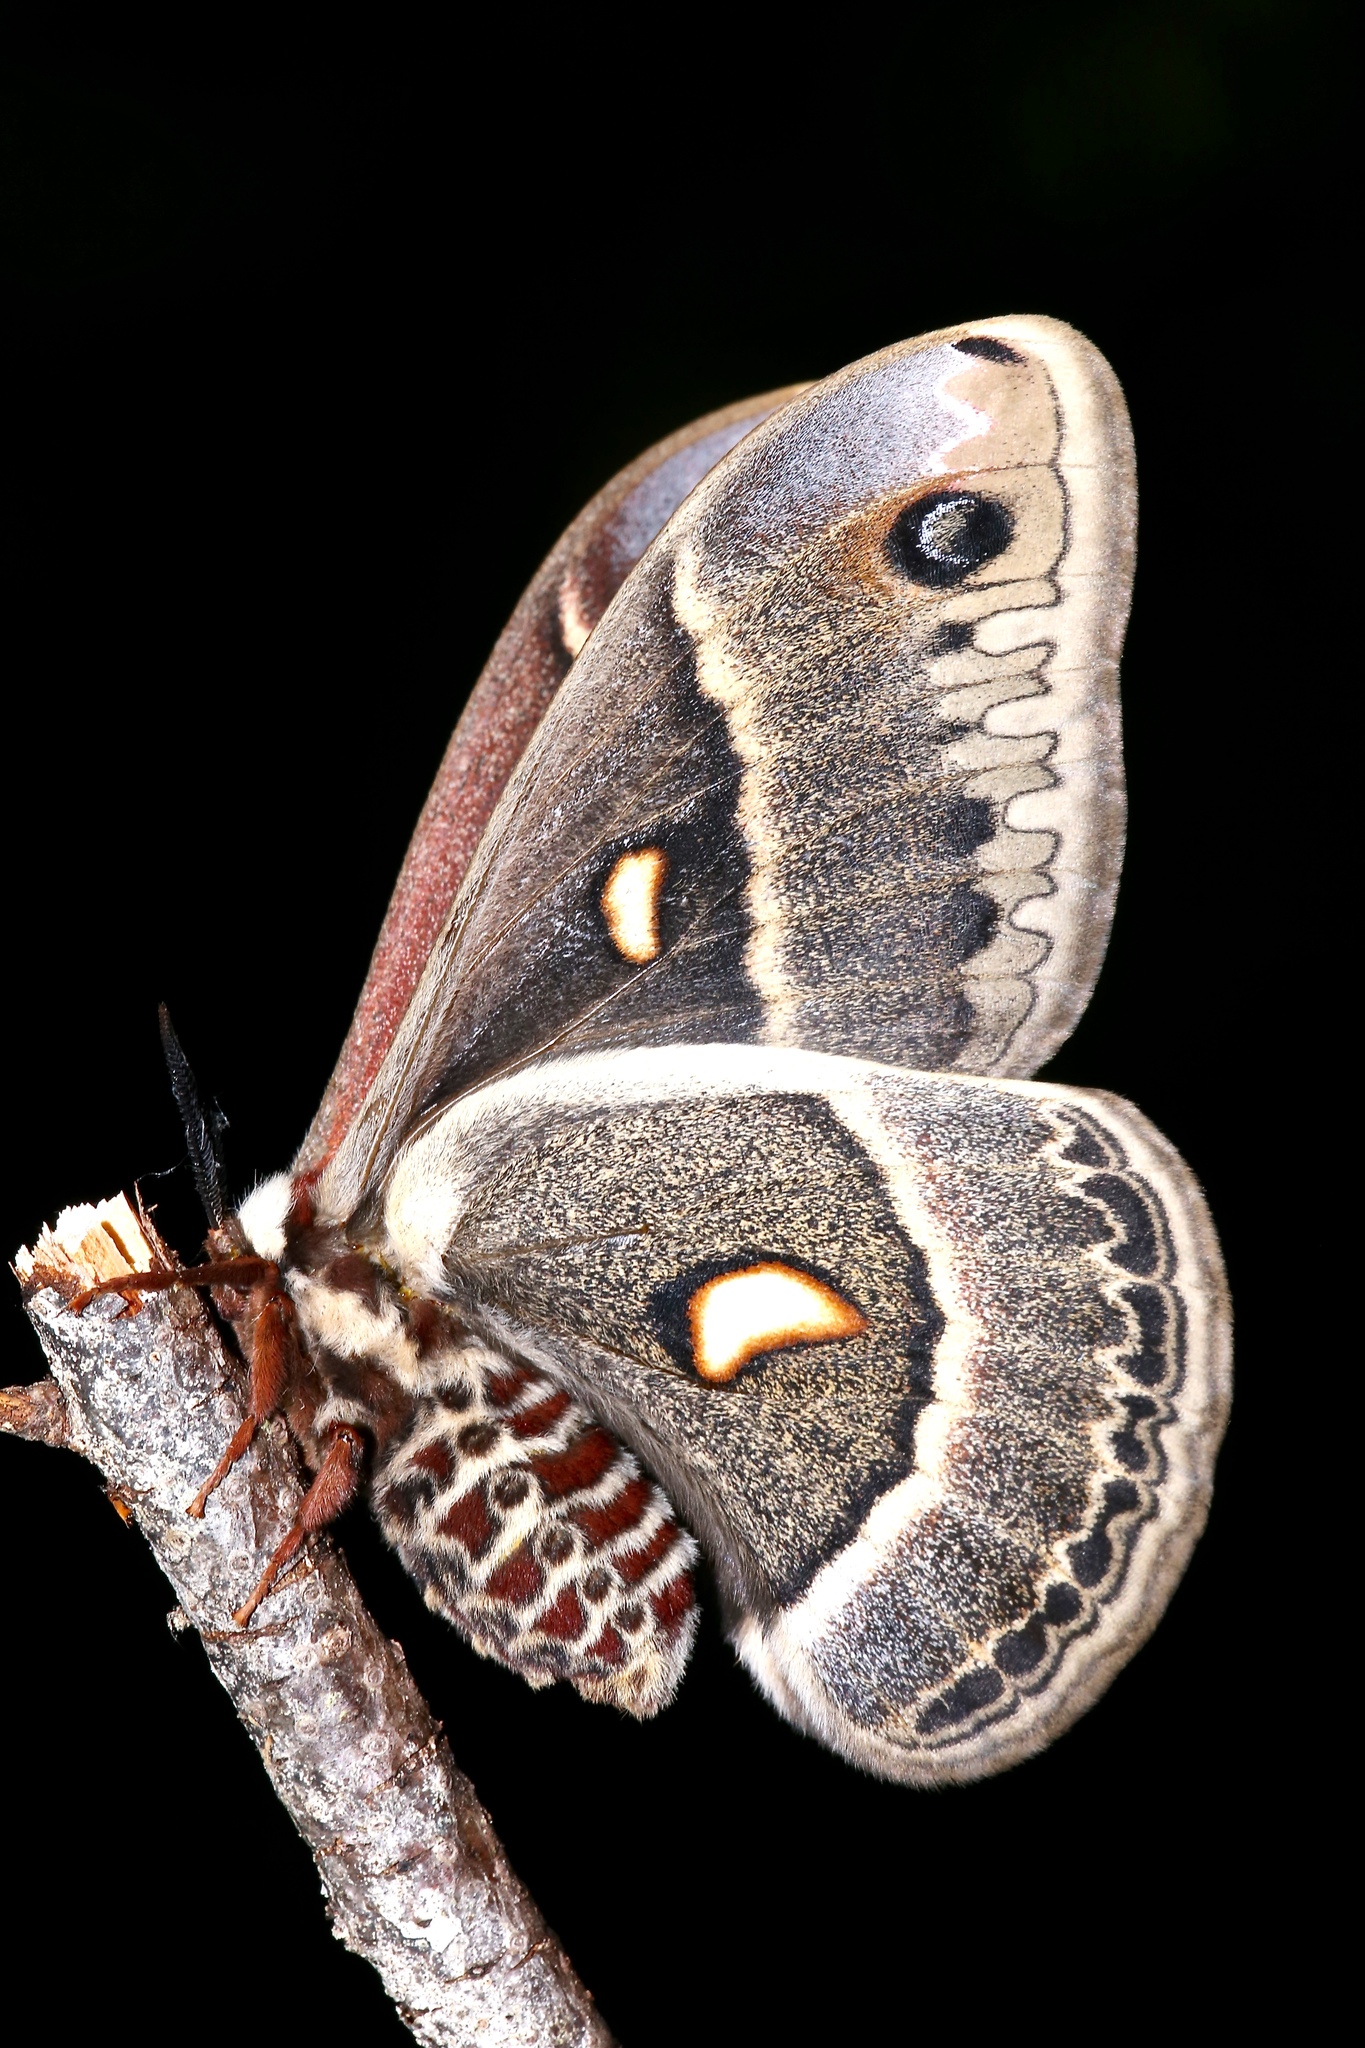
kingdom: Animalia
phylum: Arthropoda
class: Insecta
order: Lepidoptera
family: Saturniidae
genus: Hyalophora
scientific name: Hyalophora columbia
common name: Columbia silkmoth
